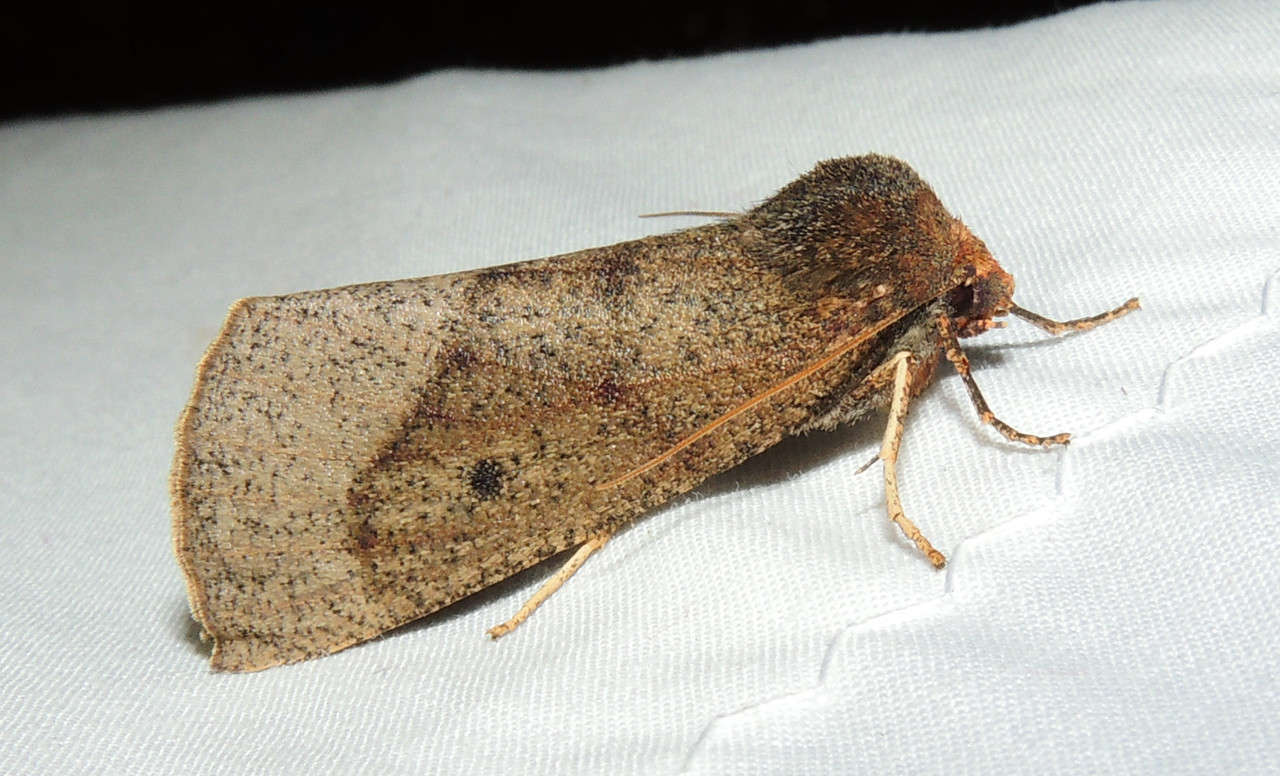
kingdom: Animalia
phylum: Arthropoda
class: Insecta
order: Lepidoptera
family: Geometridae
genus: Fisera
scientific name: Fisera belidearia
